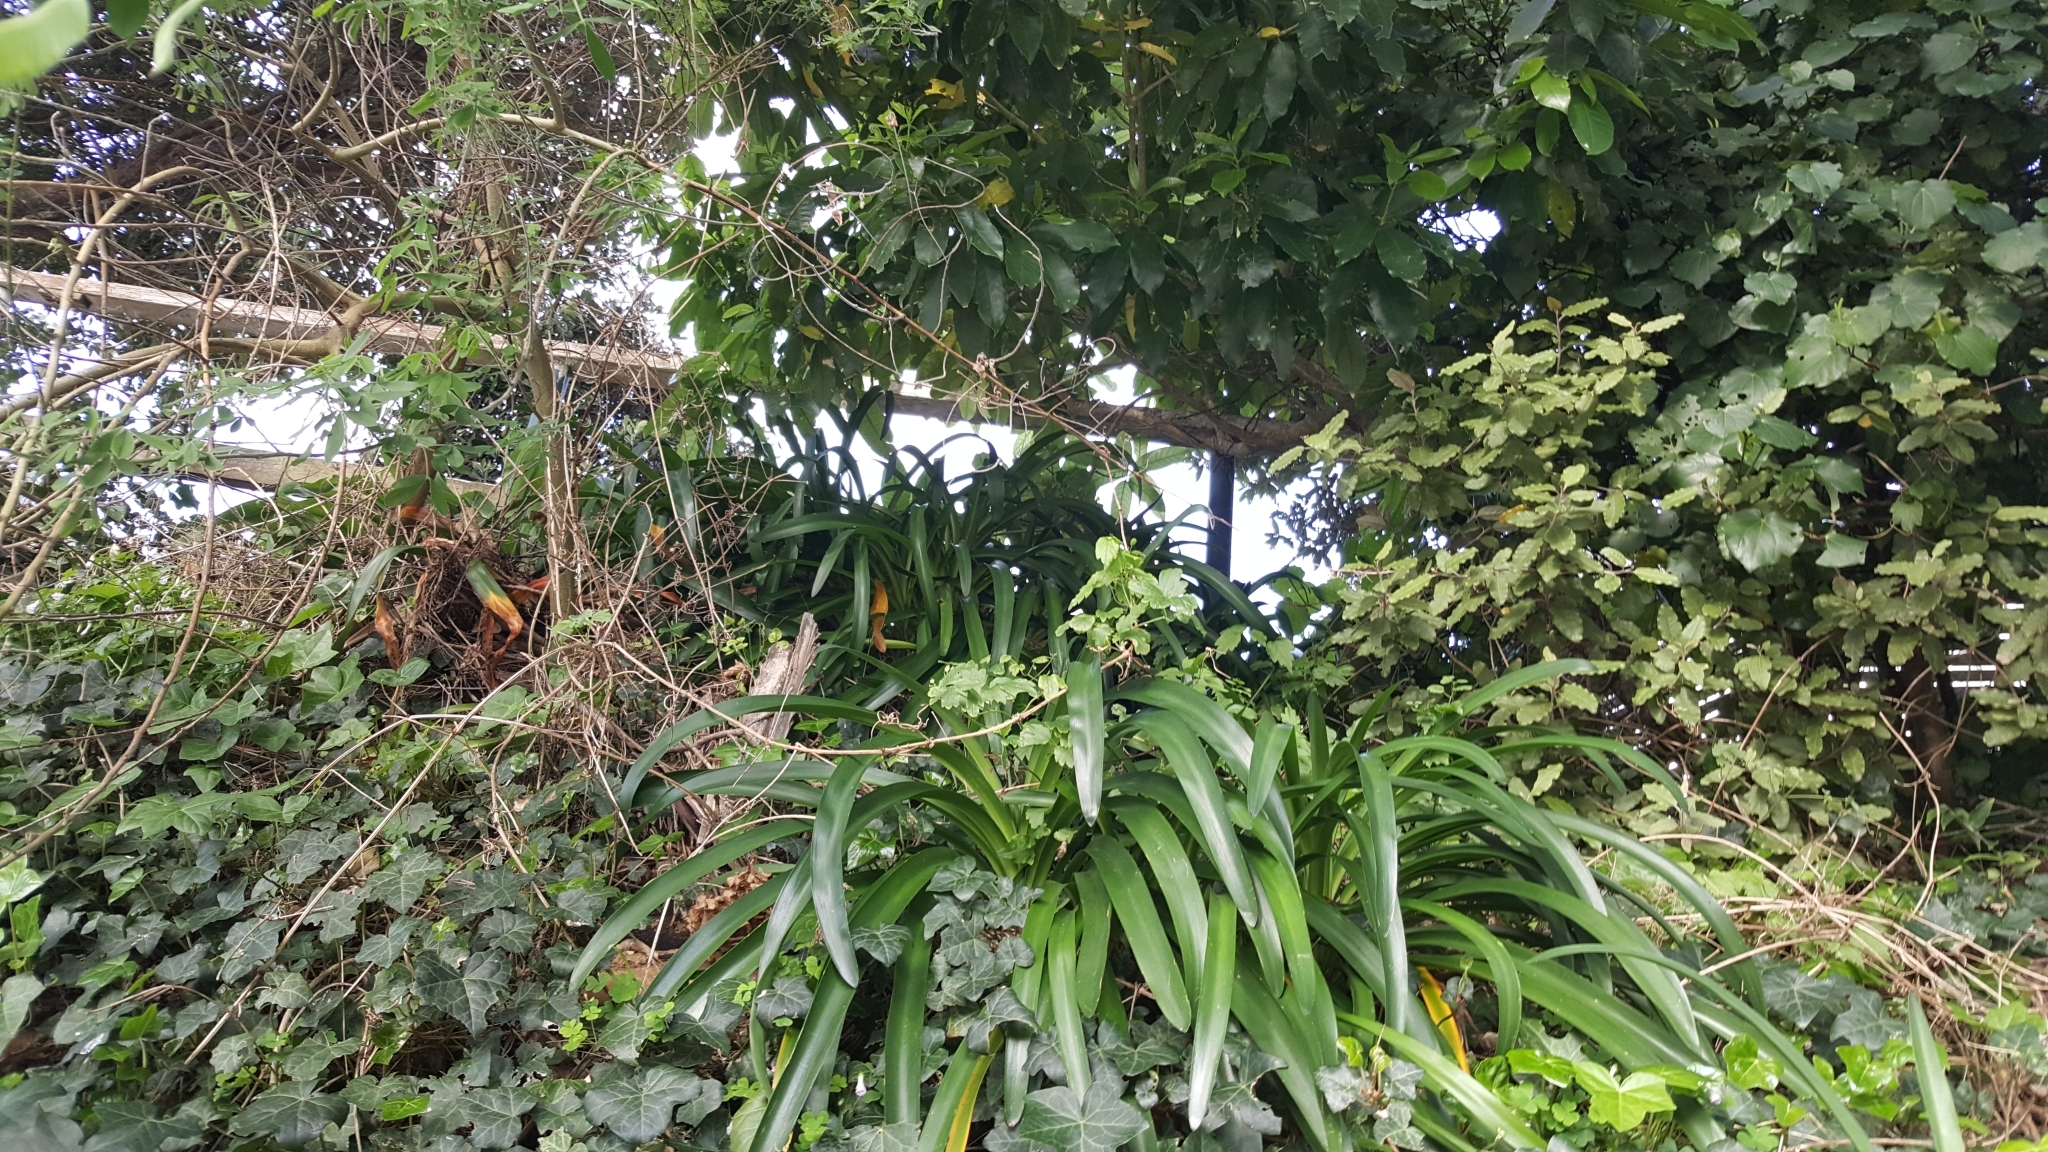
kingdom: Plantae
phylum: Tracheophyta
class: Magnoliopsida
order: Ranunculales
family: Ranunculaceae
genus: Clematis
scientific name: Clematis vitalba
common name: Evergreen clematis
